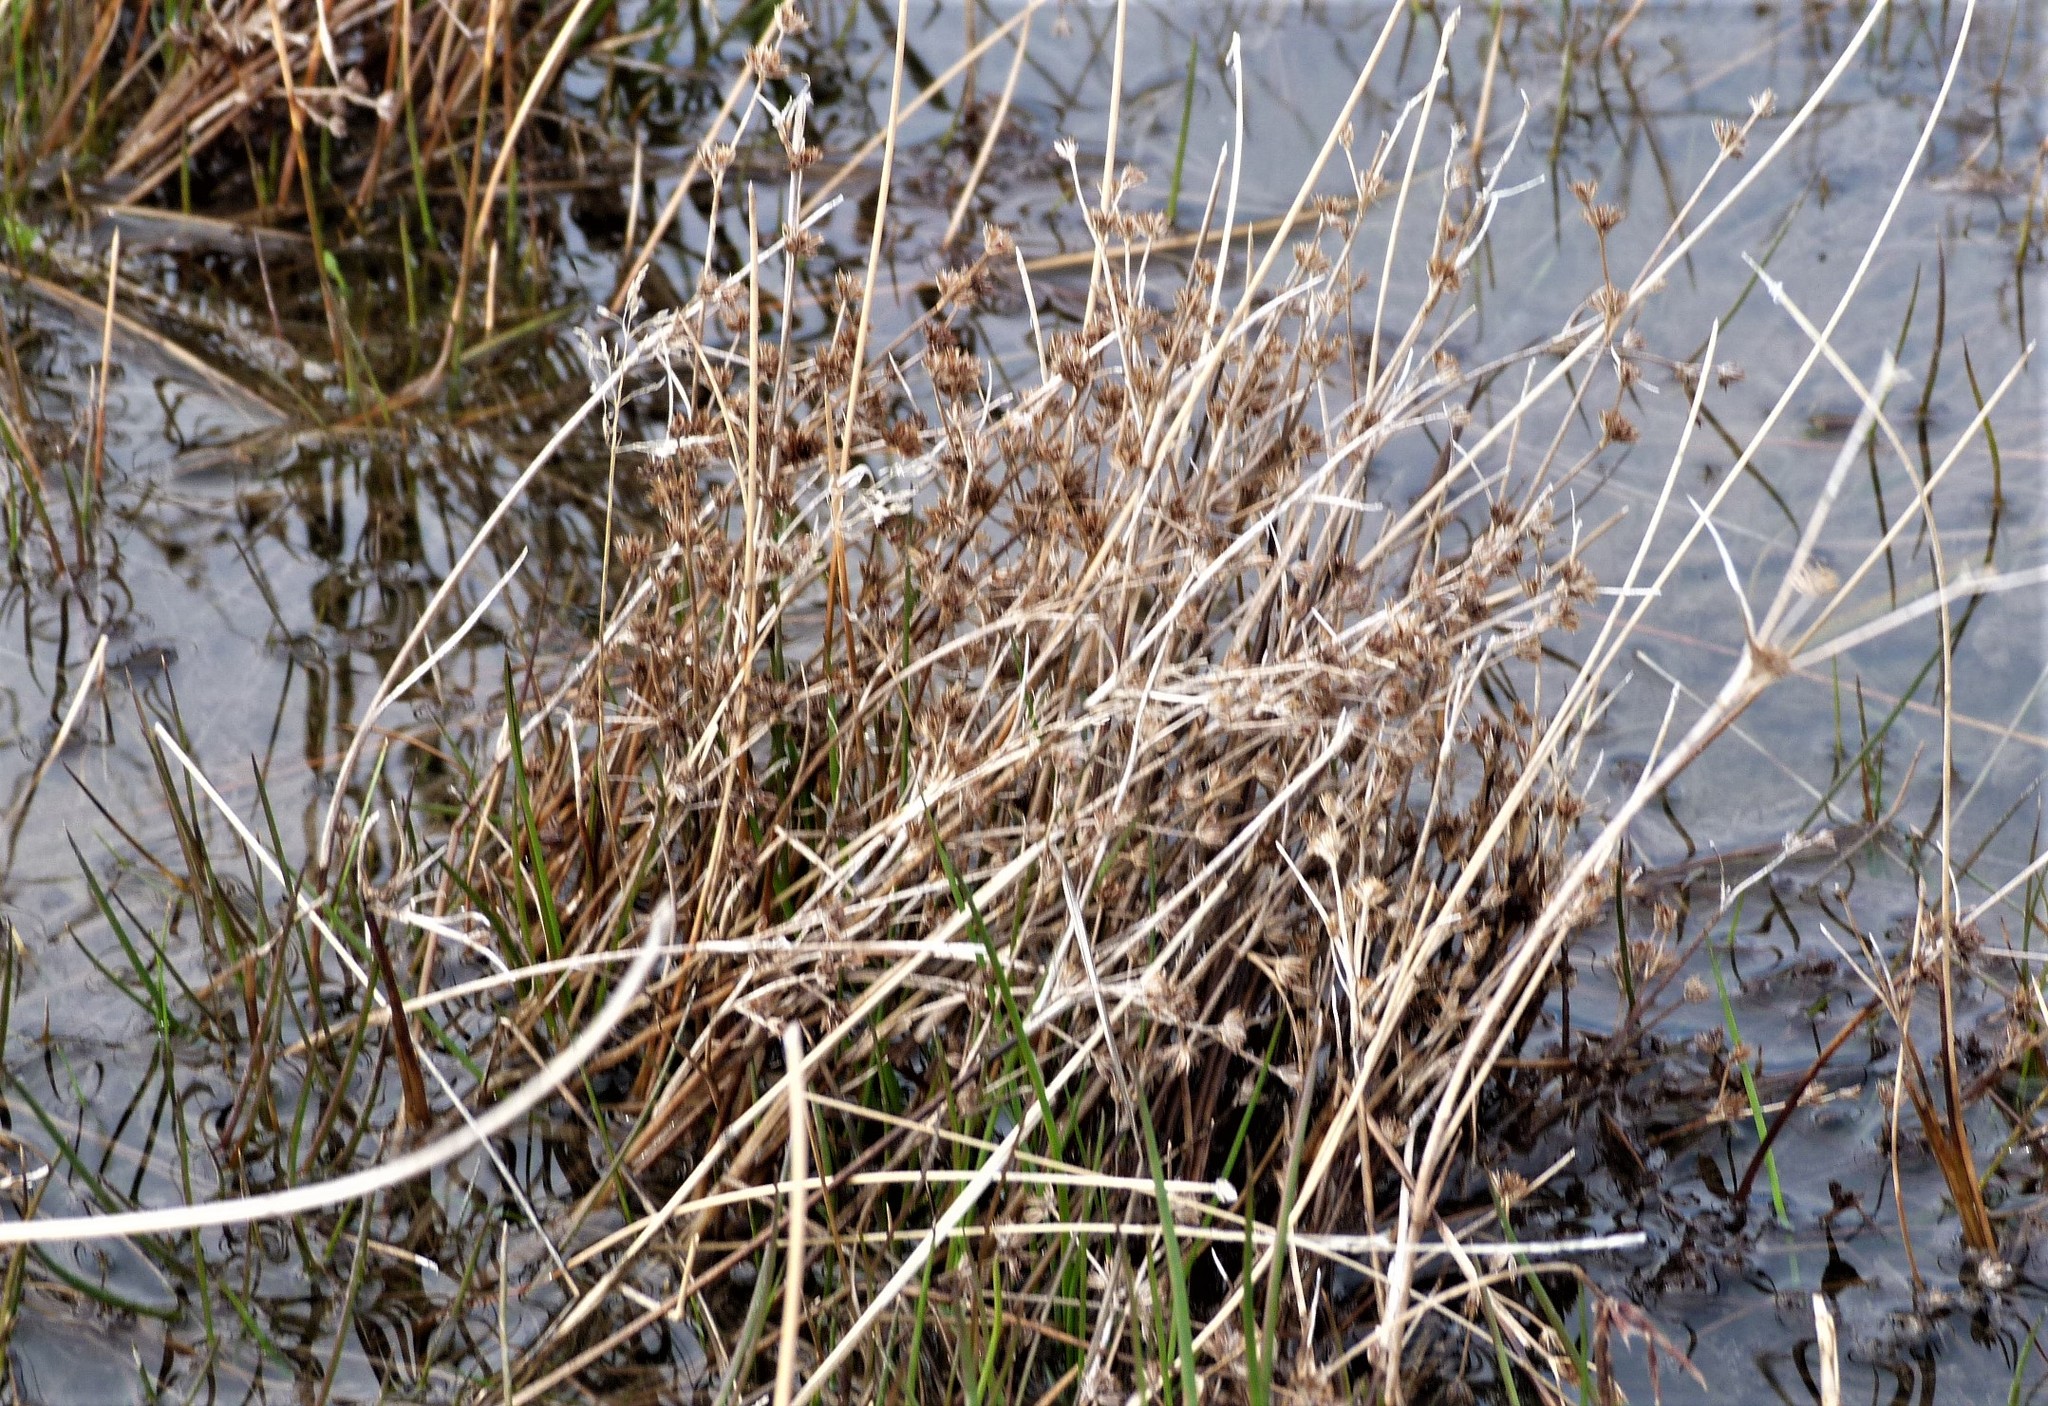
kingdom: Plantae
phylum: Tracheophyta
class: Liliopsida
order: Poales
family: Juncaceae
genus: Juncus
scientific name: Juncus articulatus
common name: Jointed rush
